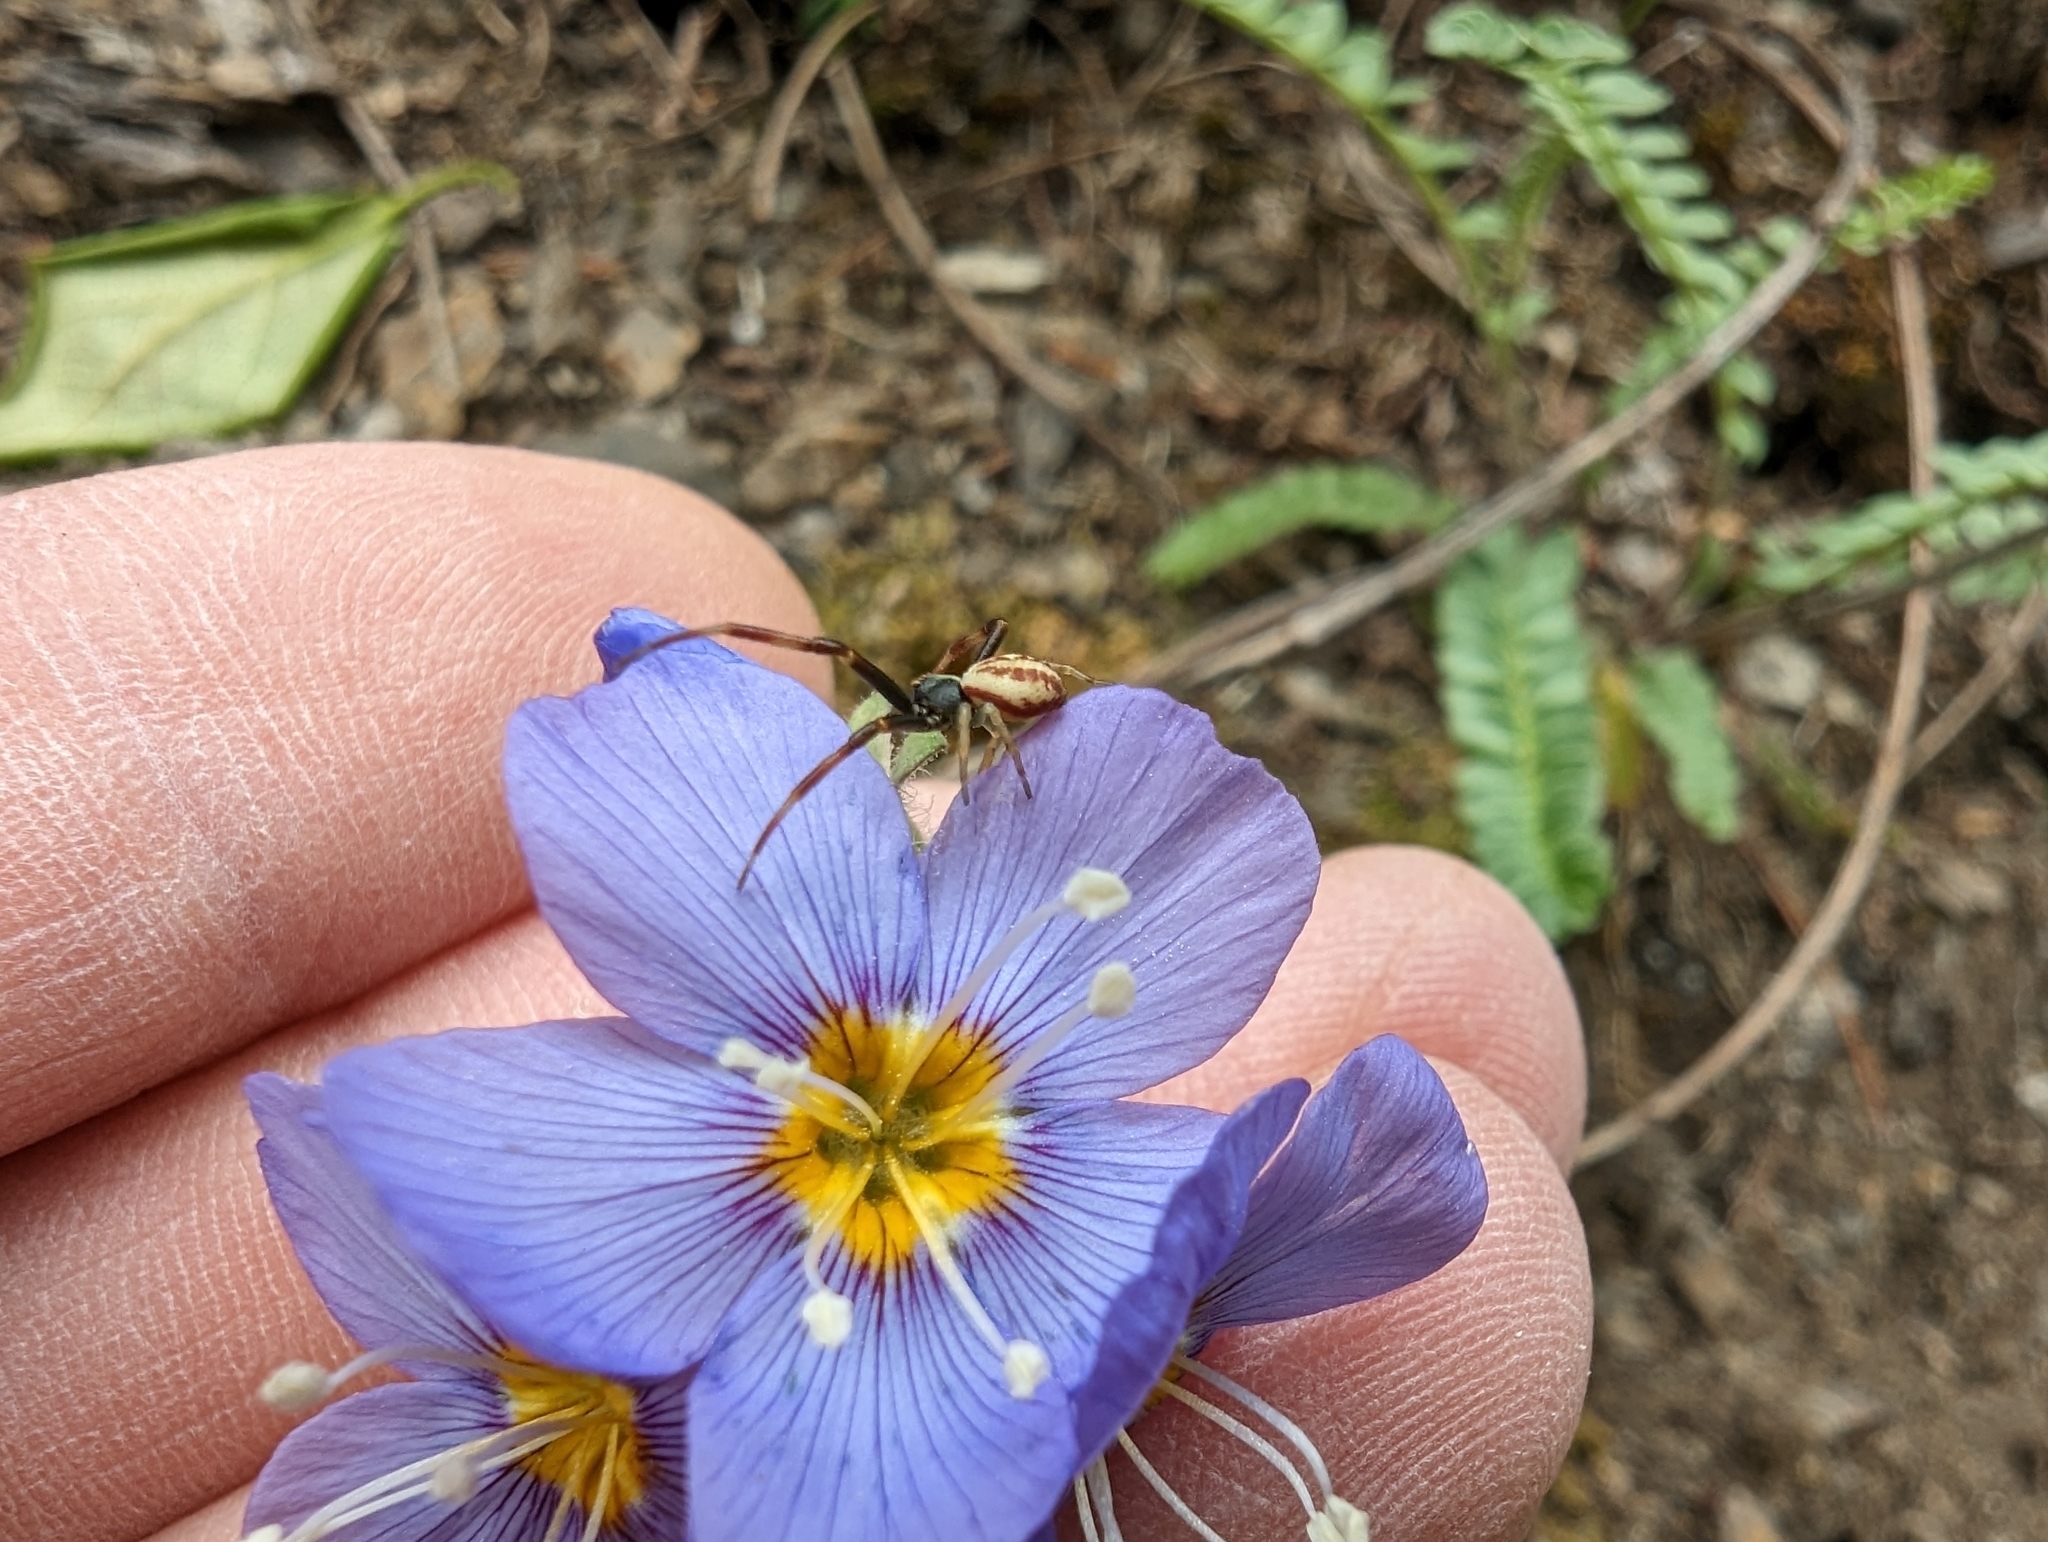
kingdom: Animalia
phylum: Arthropoda
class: Arachnida
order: Araneae
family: Thomisidae
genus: Misumena
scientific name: Misumena vatia
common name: Goldenrod crab spider
